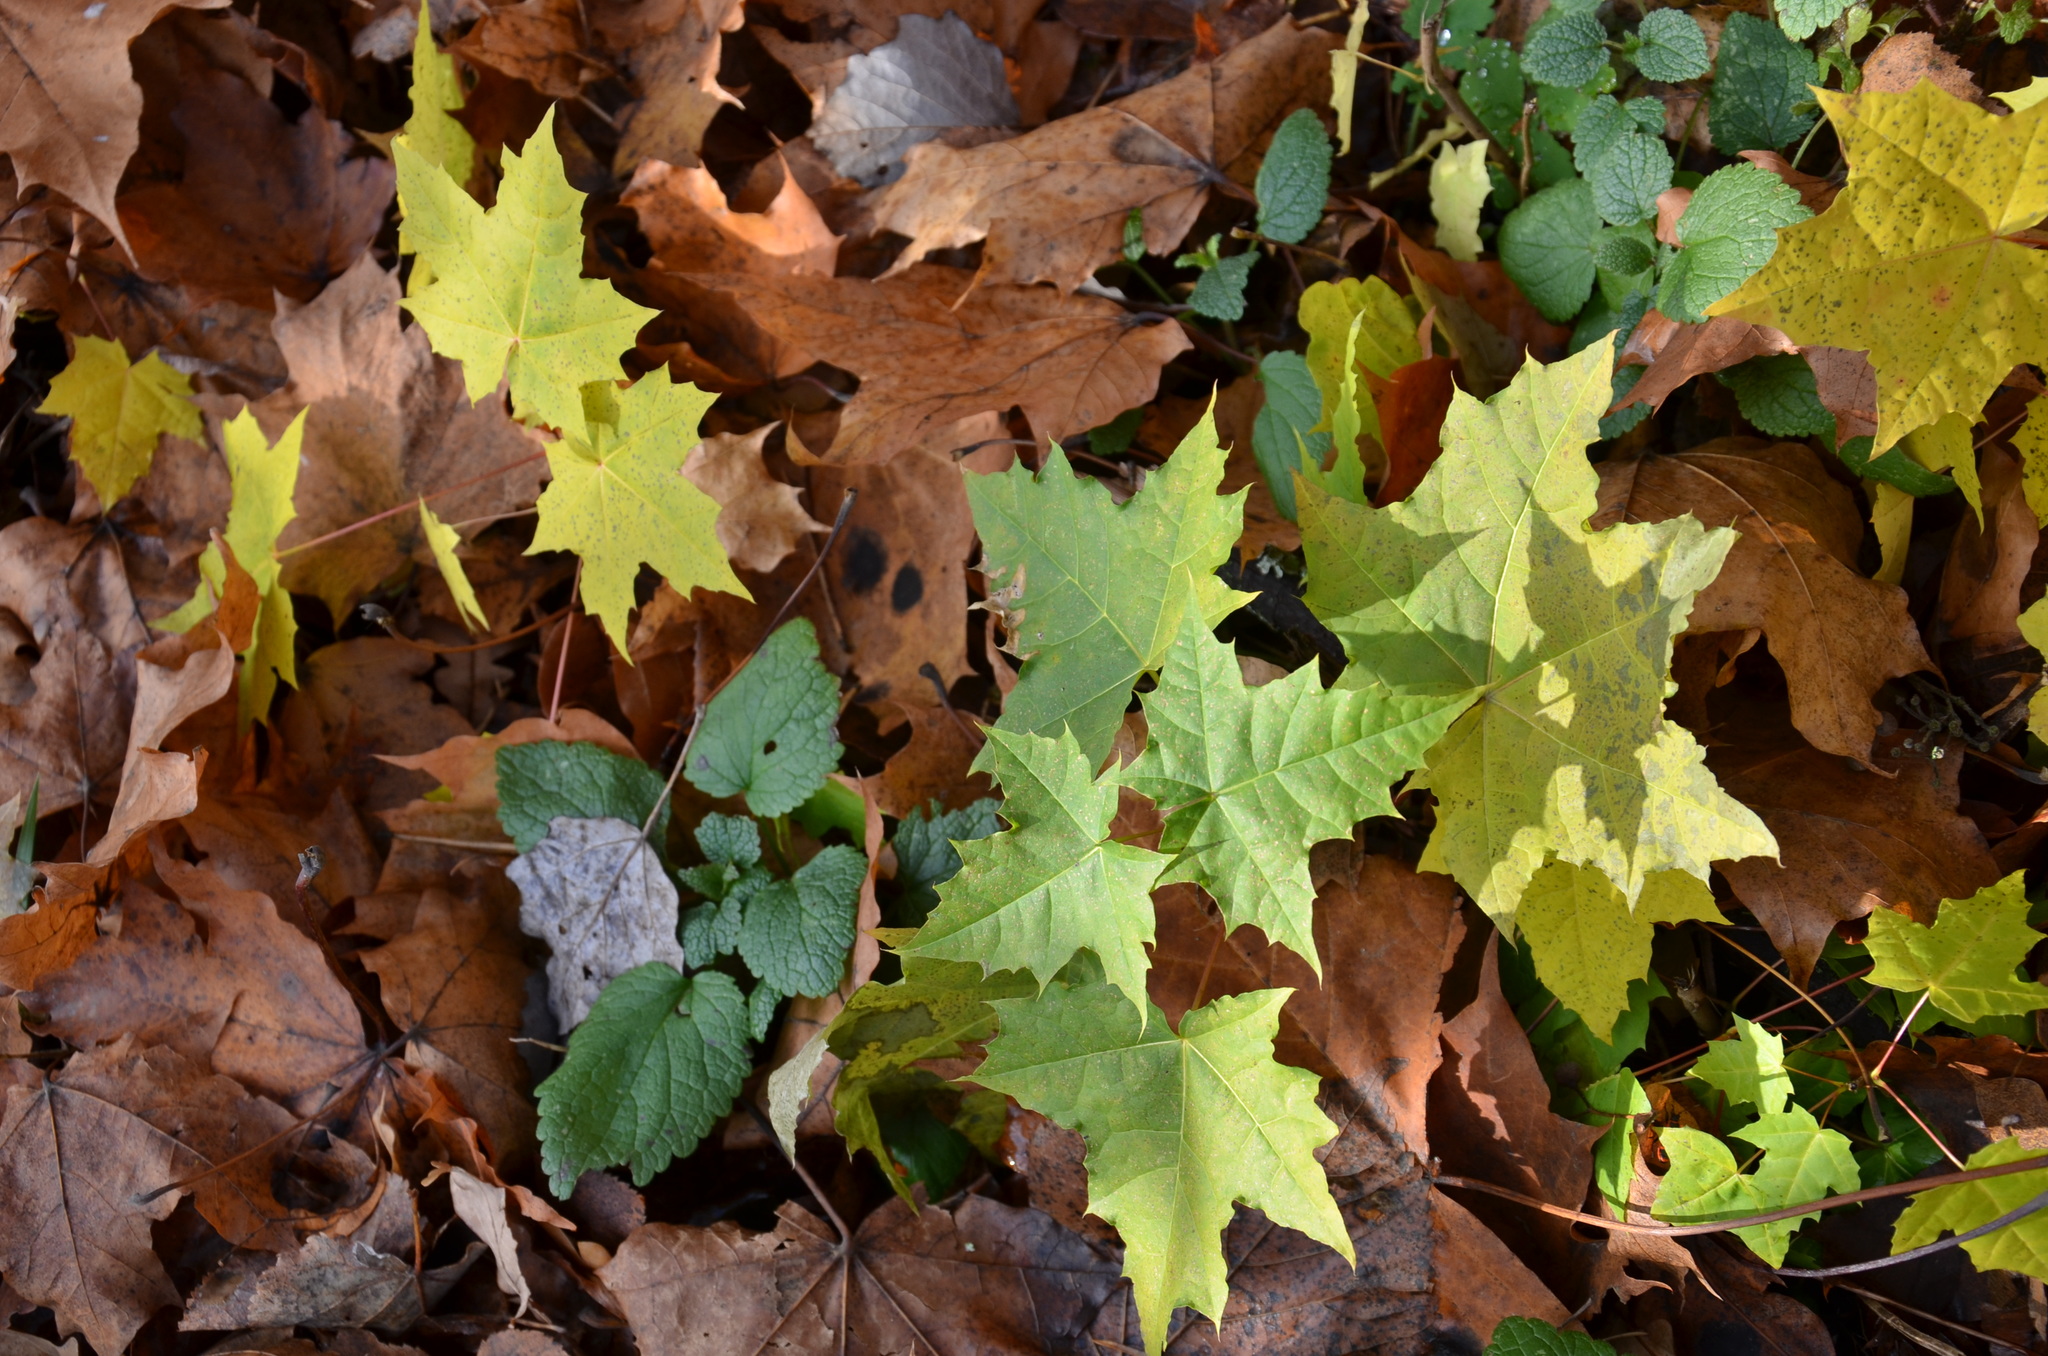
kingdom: Plantae
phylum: Tracheophyta
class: Magnoliopsida
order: Sapindales
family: Sapindaceae
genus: Acer
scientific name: Acer platanoides
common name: Norway maple
